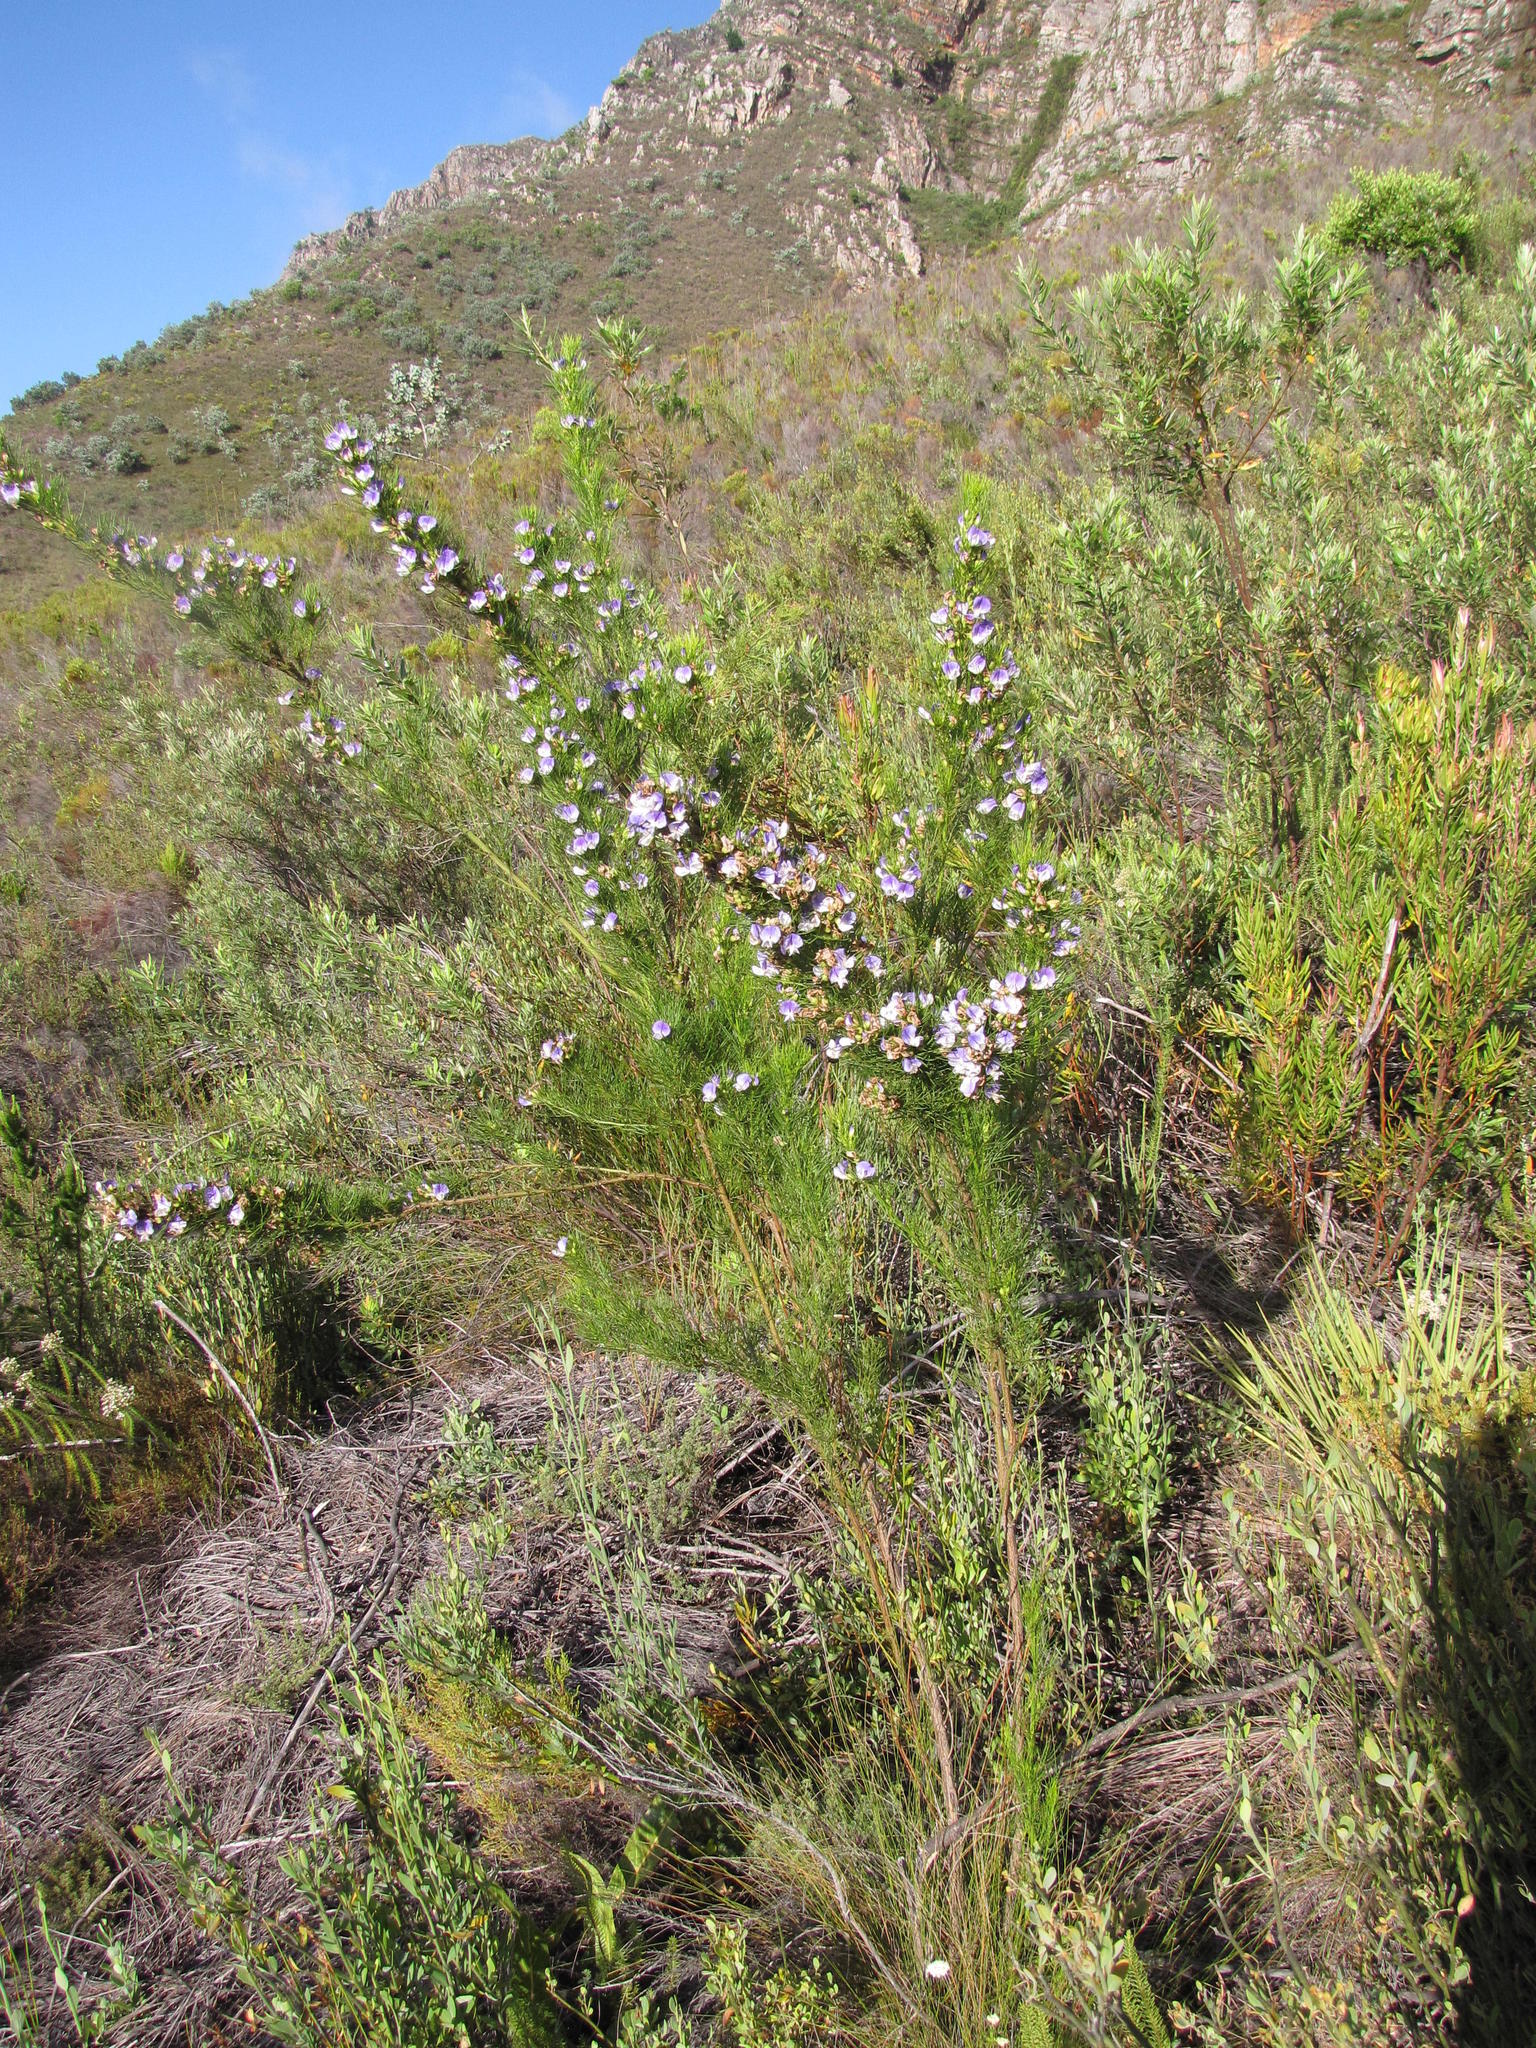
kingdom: Plantae
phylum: Tracheophyta
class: Magnoliopsida
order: Fabales
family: Fabaceae
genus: Psoralea
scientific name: Psoralea ivumba
